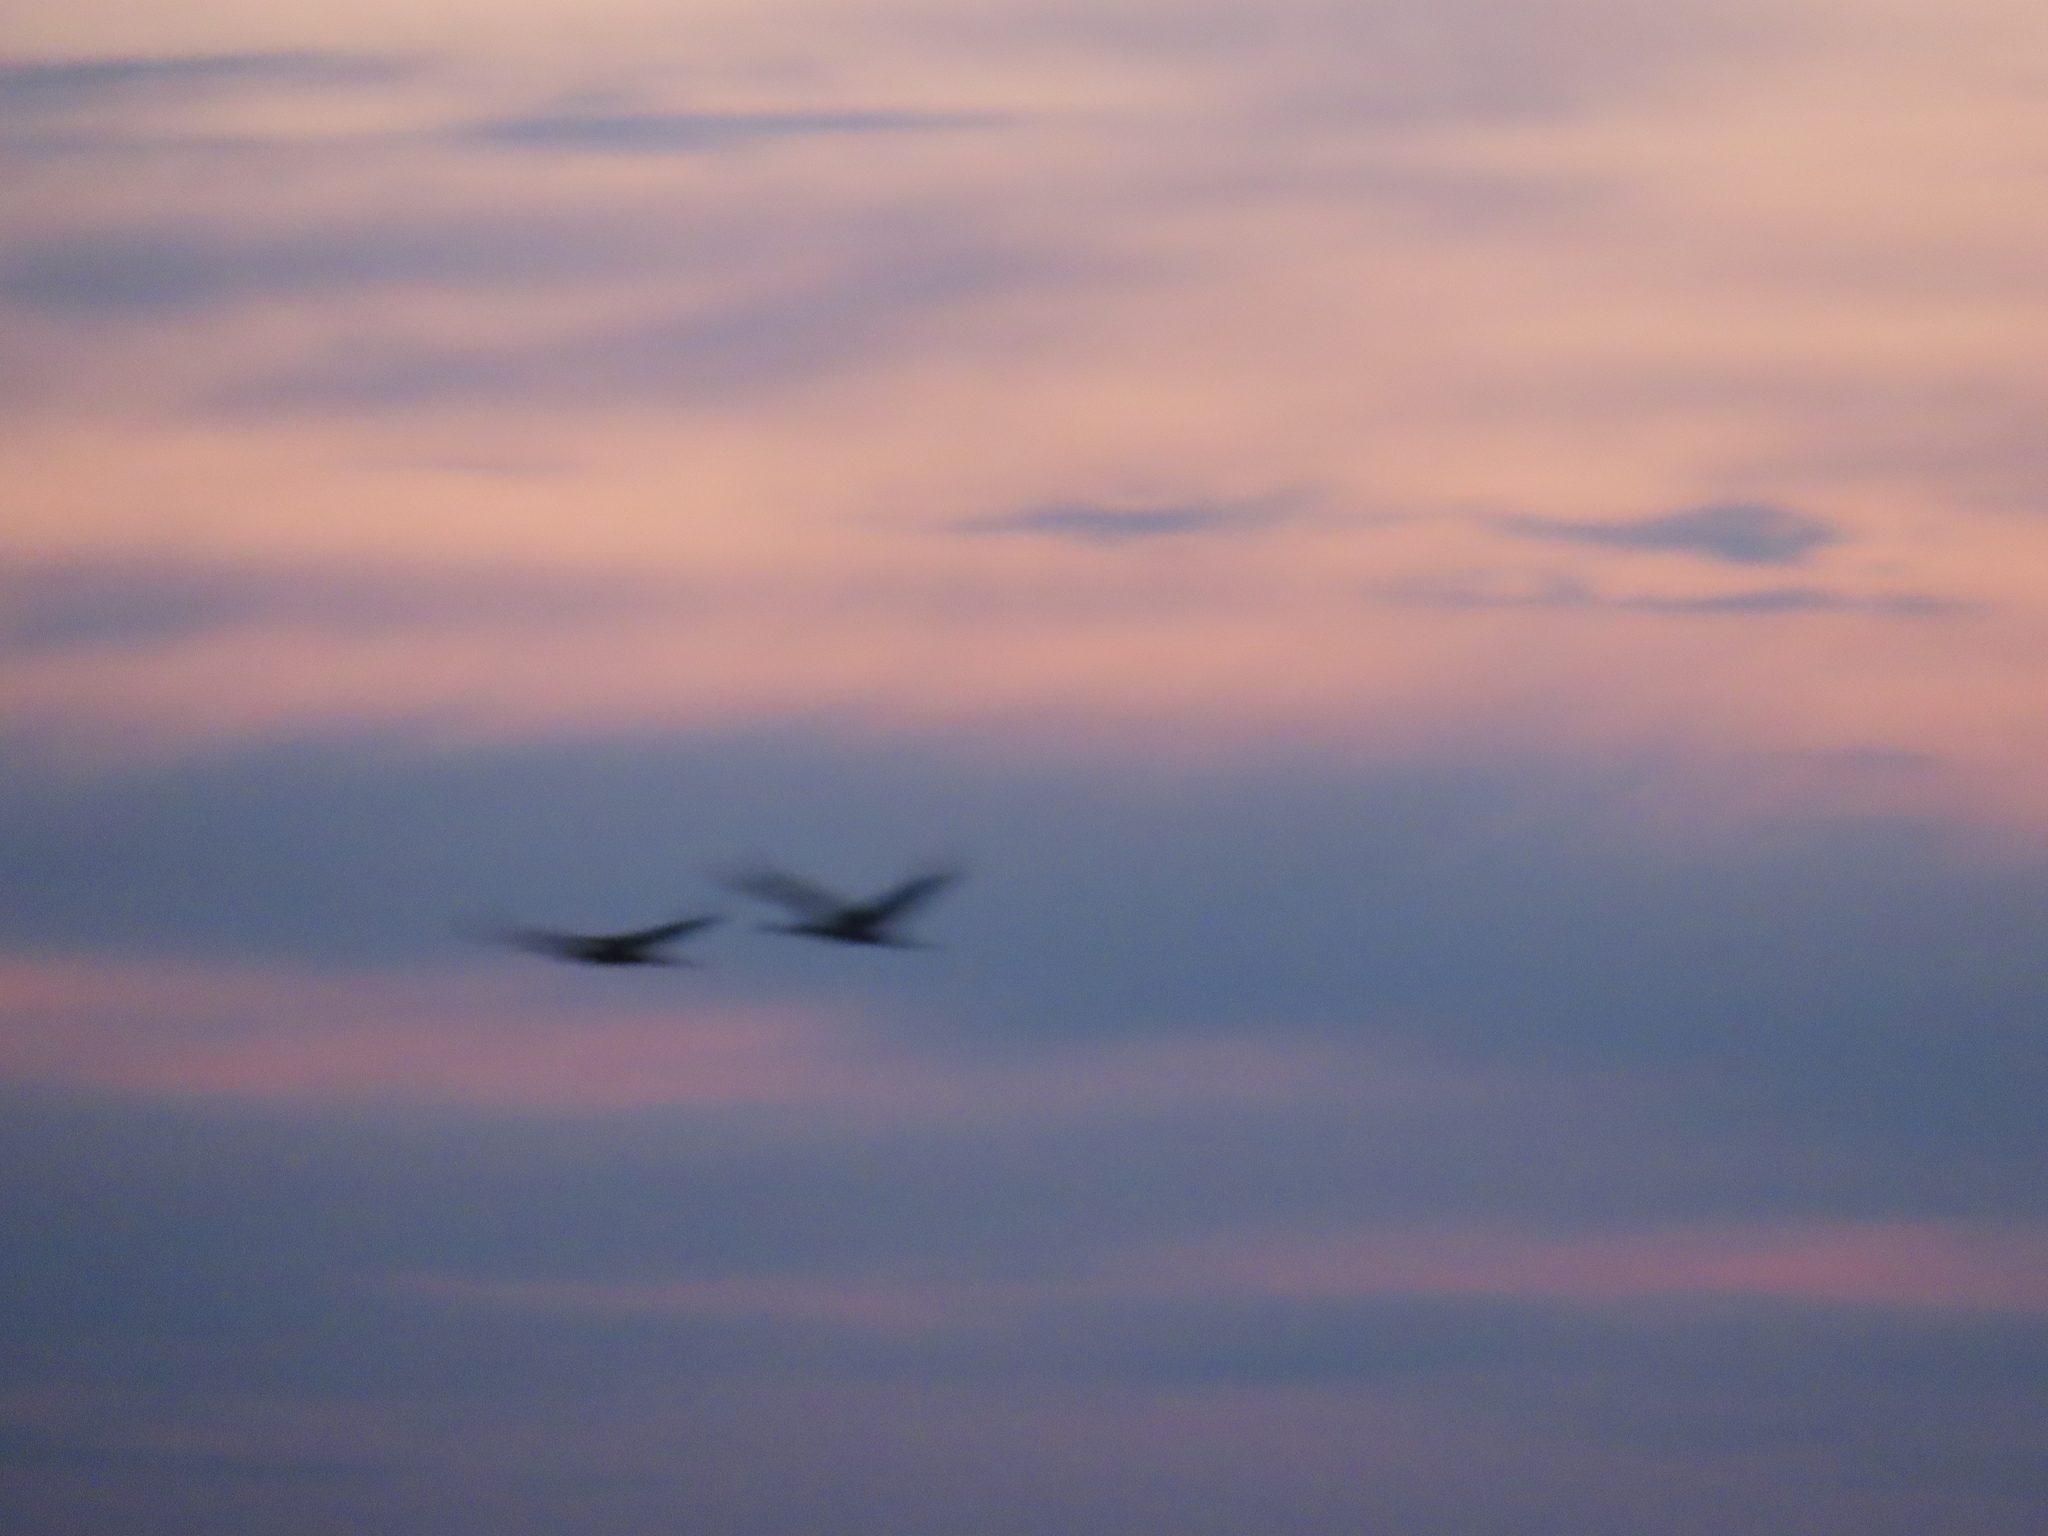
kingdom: Animalia
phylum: Chordata
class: Aves
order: Gruiformes
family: Gruidae
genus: Grus
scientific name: Grus canadensis
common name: Sandhill crane
